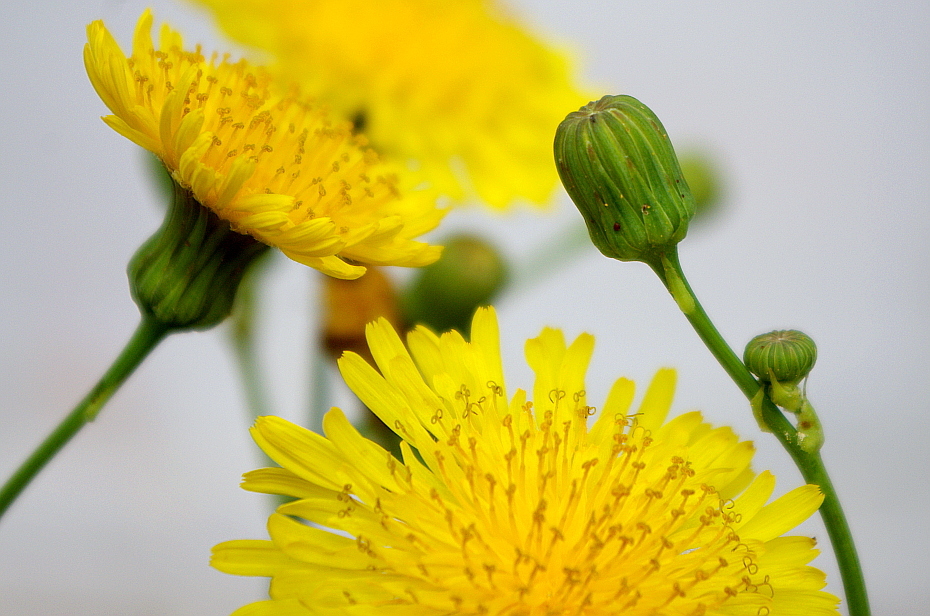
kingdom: Plantae
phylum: Tracheophyta
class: Magnoliopsida
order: Asterales
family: Asteraceae
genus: Sonchus
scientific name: Sonchus arvensis
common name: Perennial sow-thistle
